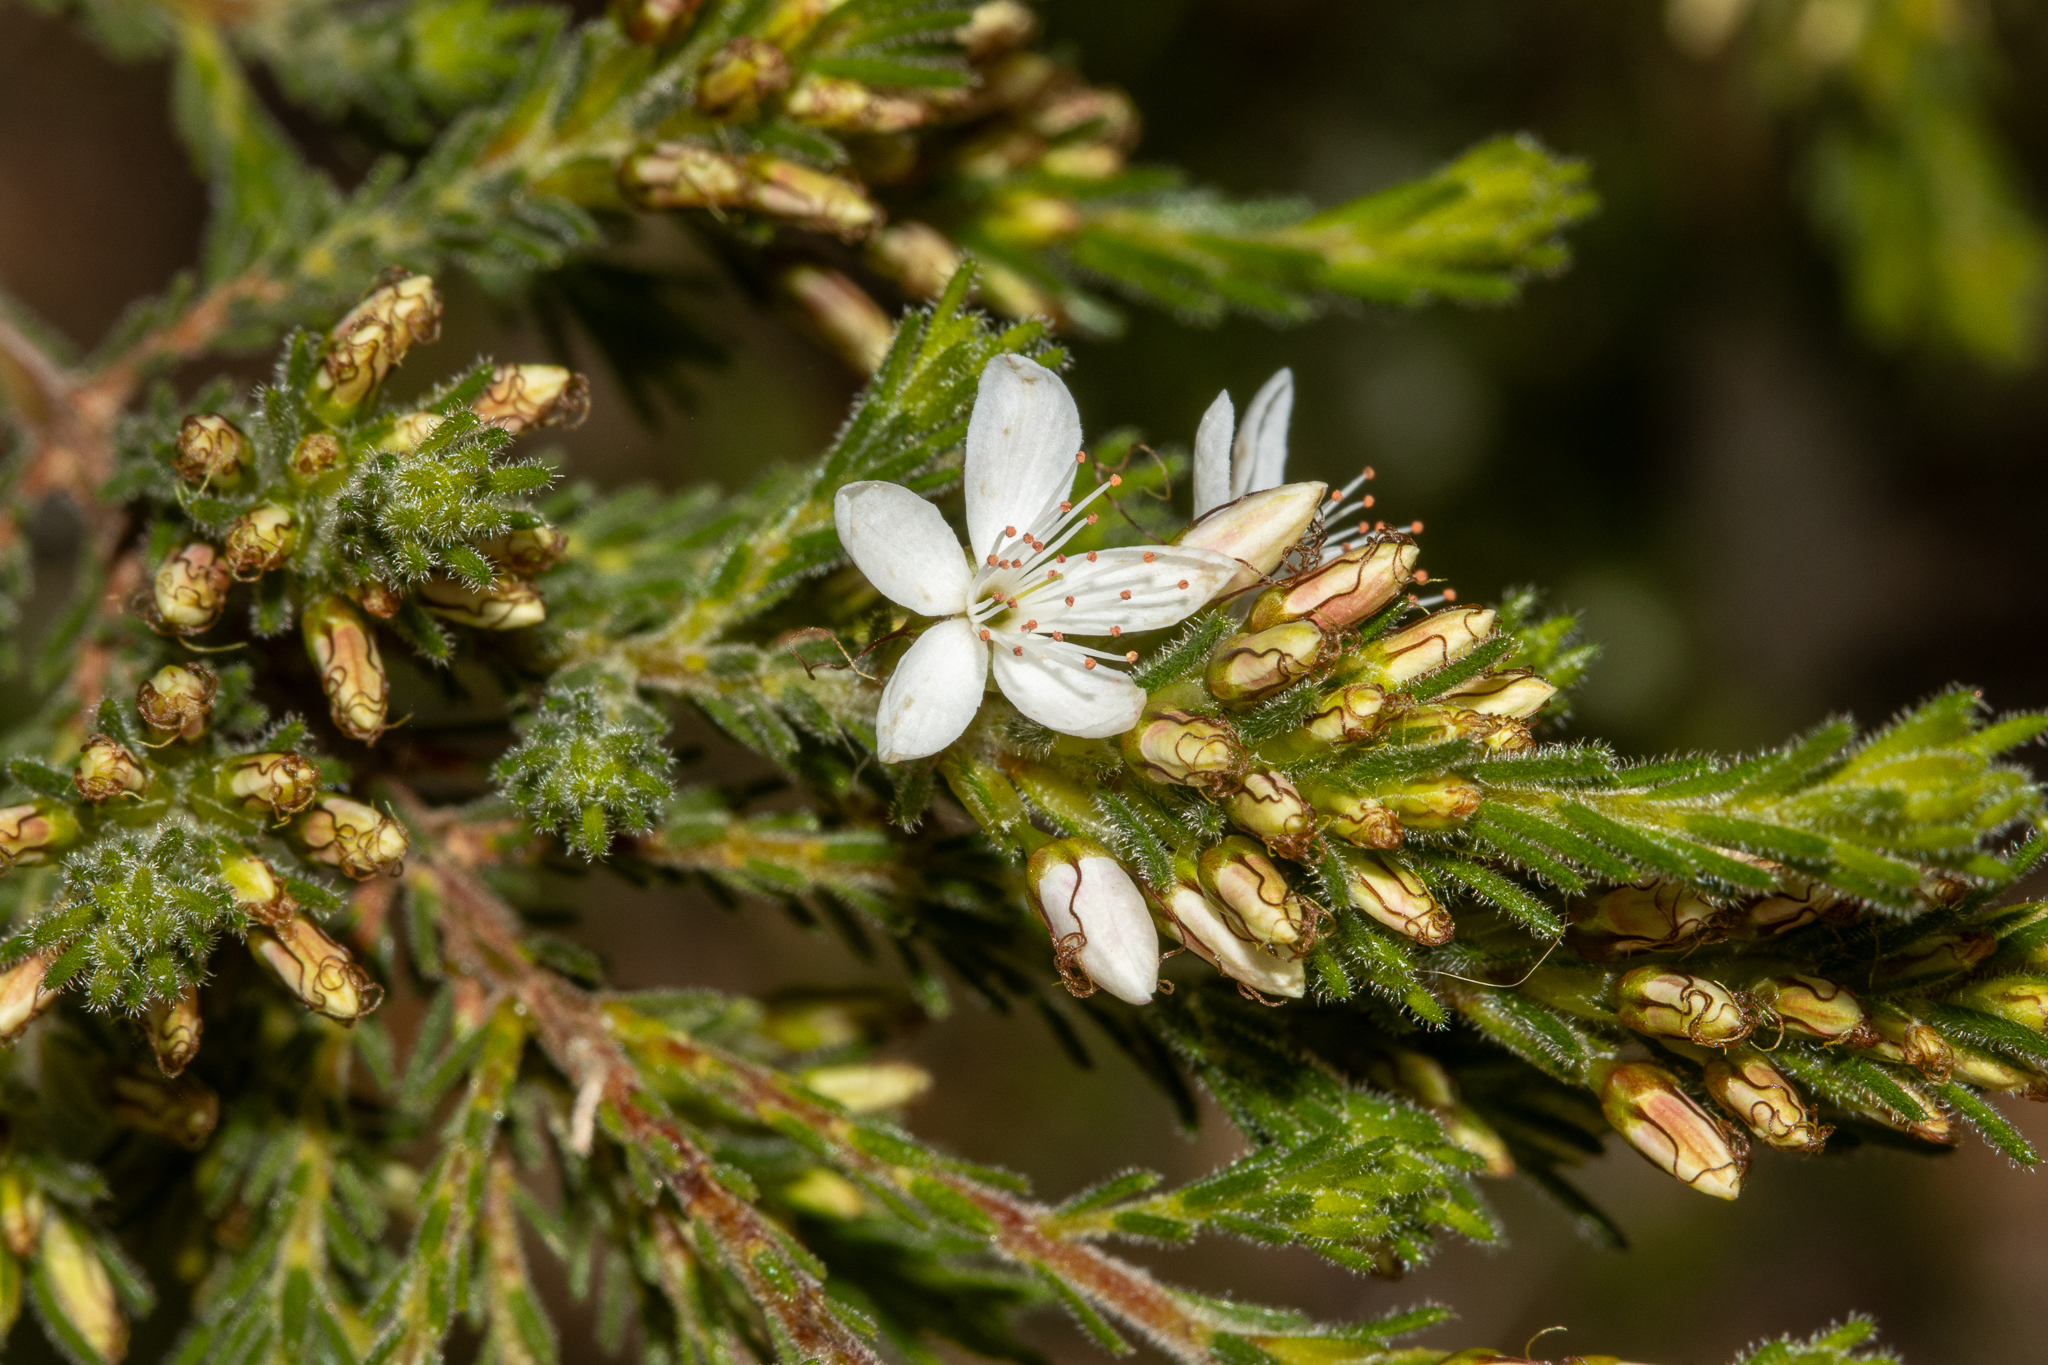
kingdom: Plantae
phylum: Tracheophyta
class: Magnoliopsida
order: Myrtales
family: Myrtaceae
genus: Calytrix
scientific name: Calytrix tetragona
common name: Common fringe myrtle
